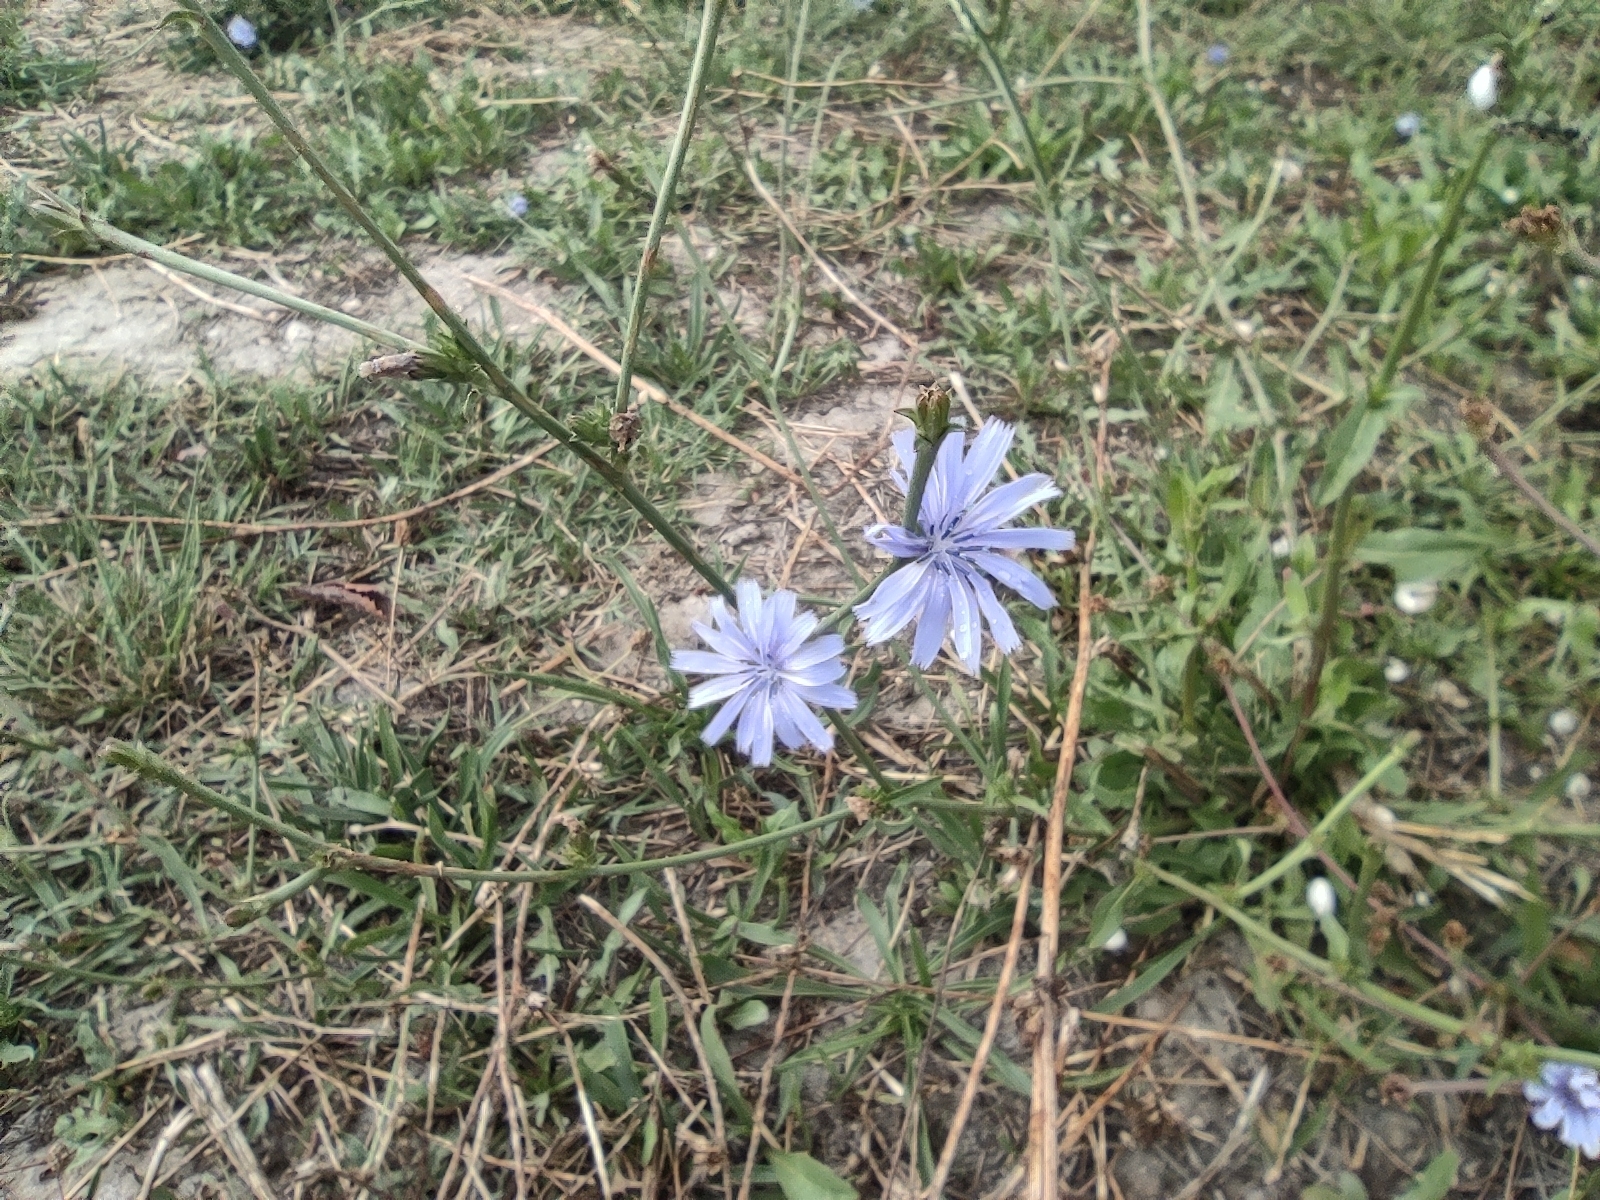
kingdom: Plantae
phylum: Tracheophyta
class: Magnoliopsida
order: Asterales
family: Asteraceae
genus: Cichorium
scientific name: Cichorium intybus
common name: Chicory
